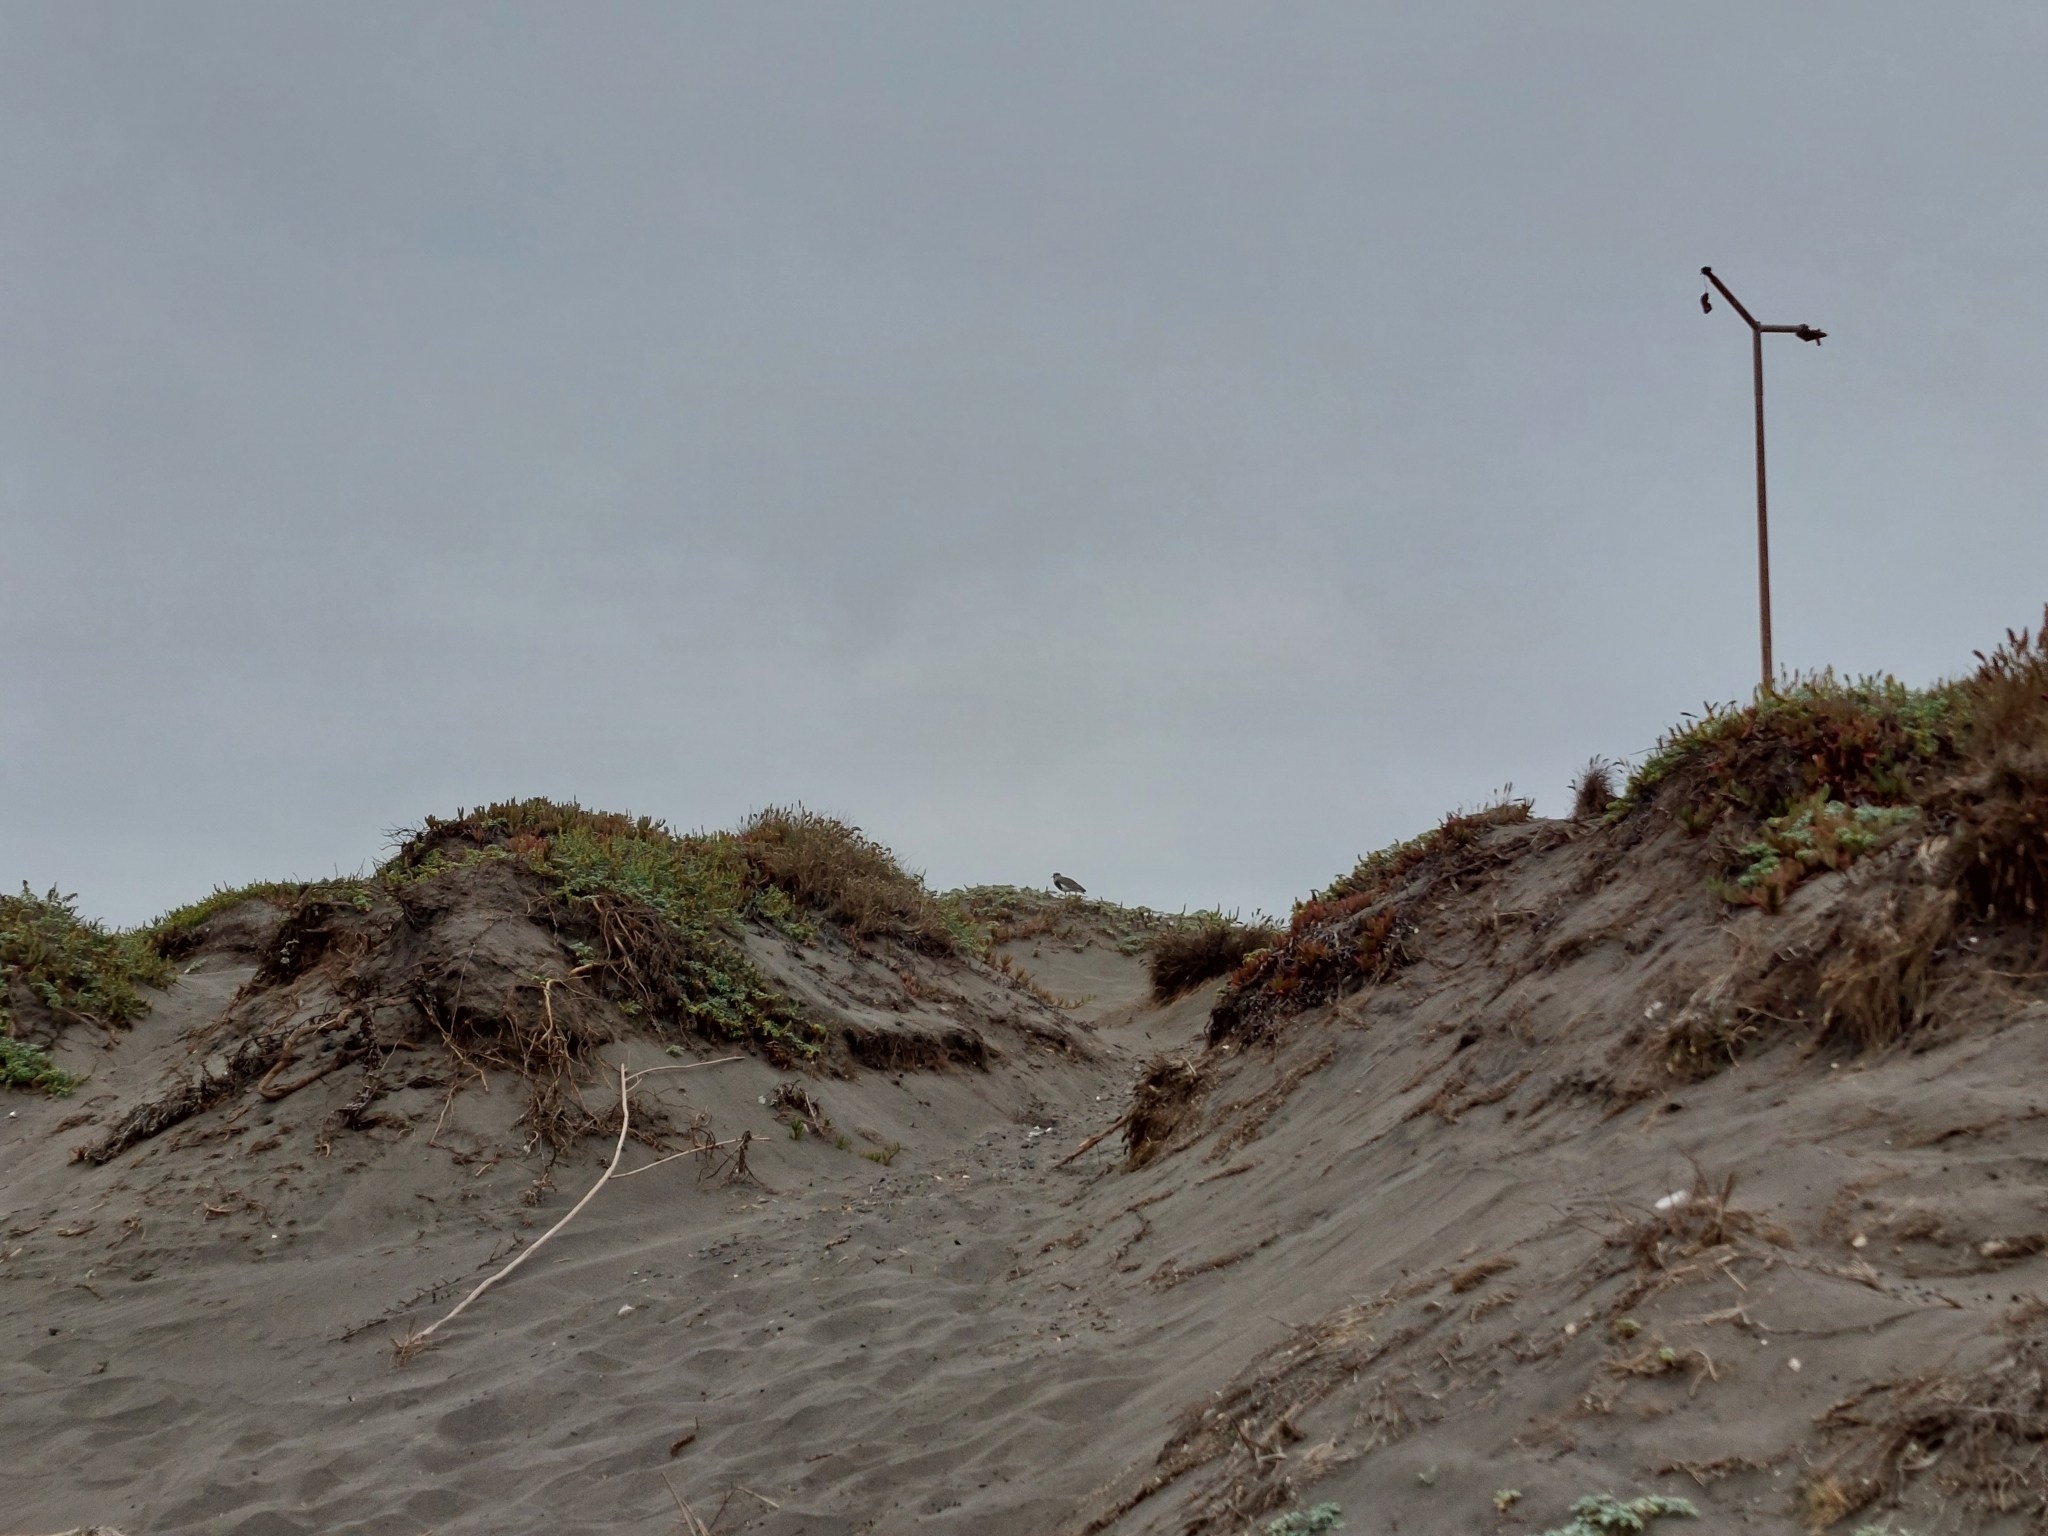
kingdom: Animalia
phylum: Chordata
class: Aves
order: Charadriiformes
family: Charadriidae
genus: Vanellus
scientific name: Vanellus chilensis
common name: Southern lapwing
